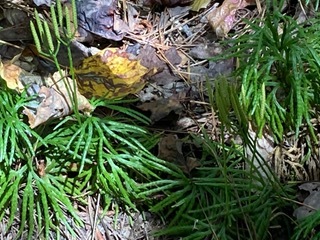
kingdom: Plantae
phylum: Tracheophyta
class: Lycopodiopsida
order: Lycopodiales
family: Lycopodiaceae
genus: Diphasiastrum
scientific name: Diphasiastrum digitatum
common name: Southern running-pine
